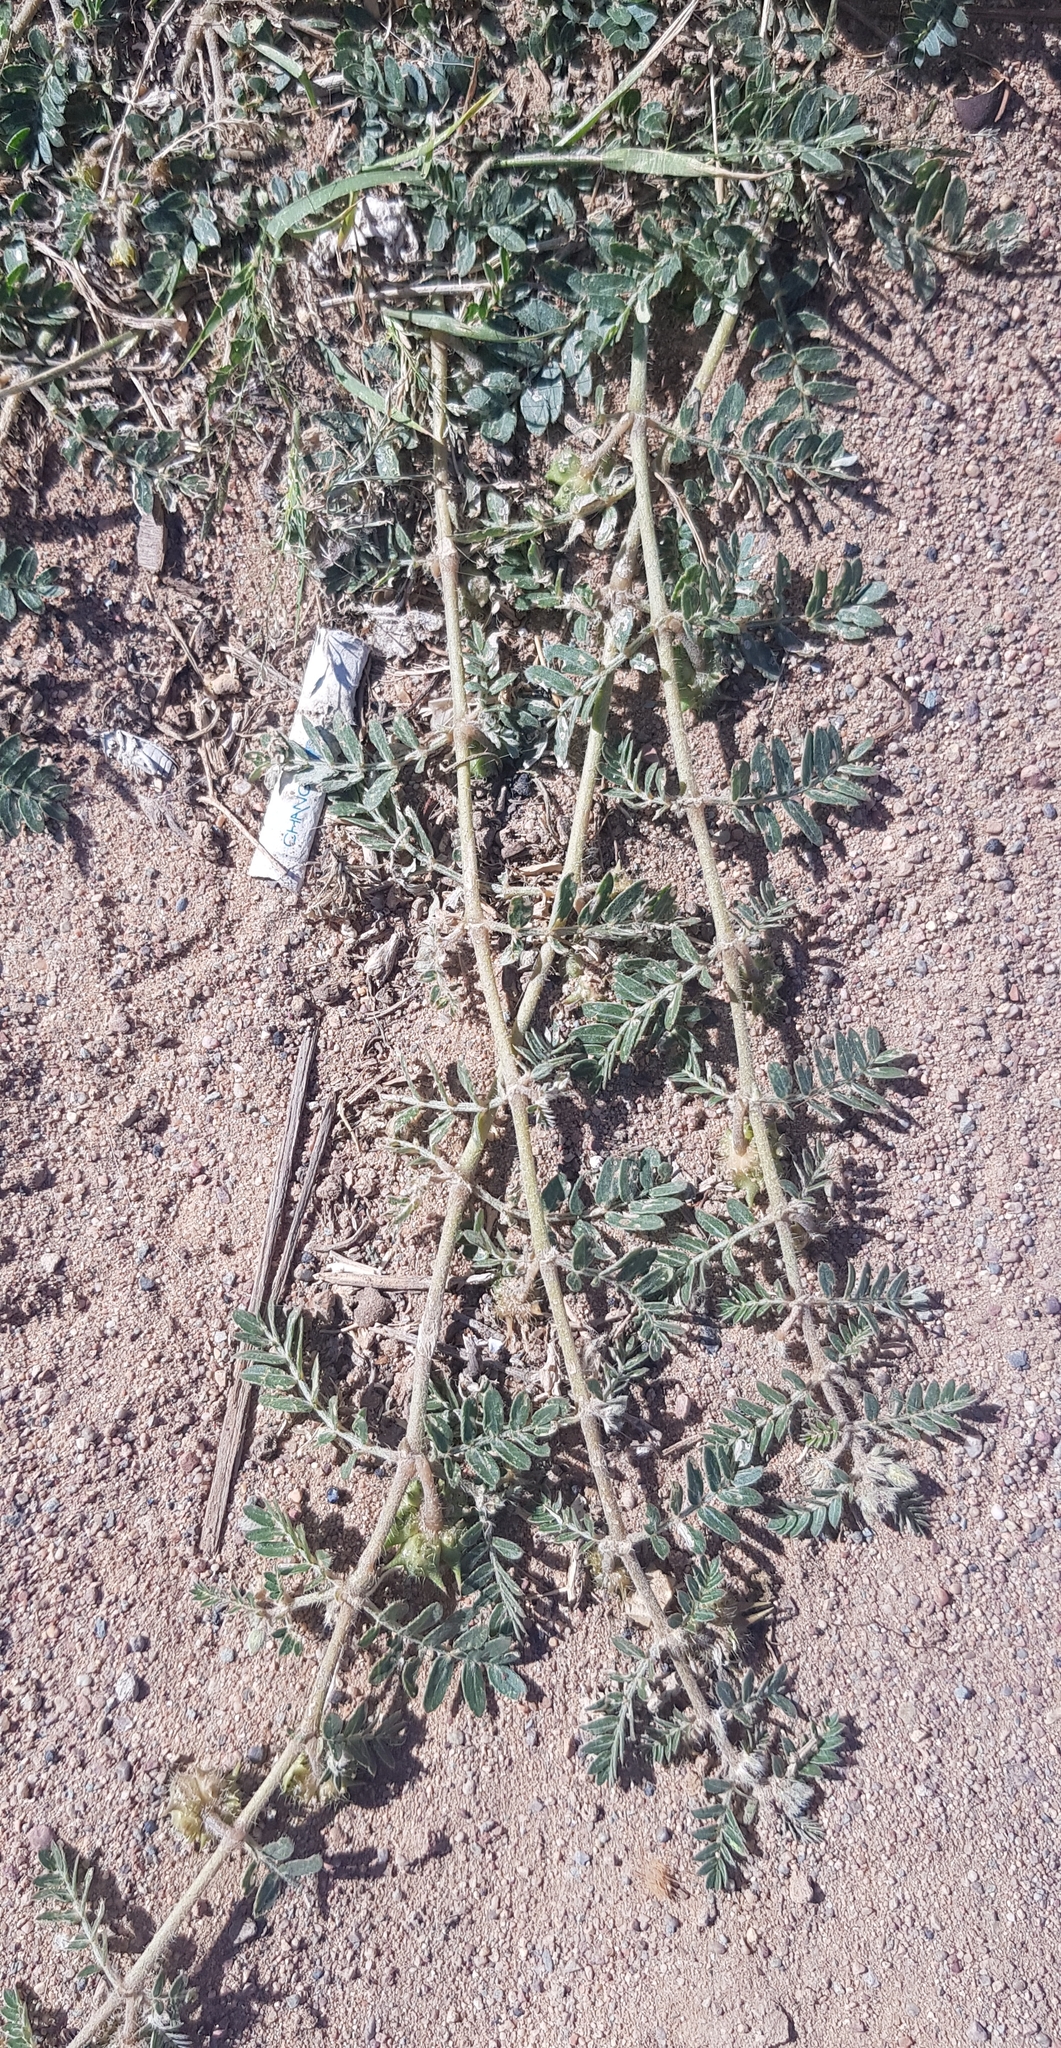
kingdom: Plantae
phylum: Tracheophyta
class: Magnoliopsida
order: Zygophyllales
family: Zygophyllaceae
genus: Tribulus
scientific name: Tribulus terrestris
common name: Puncturevine
